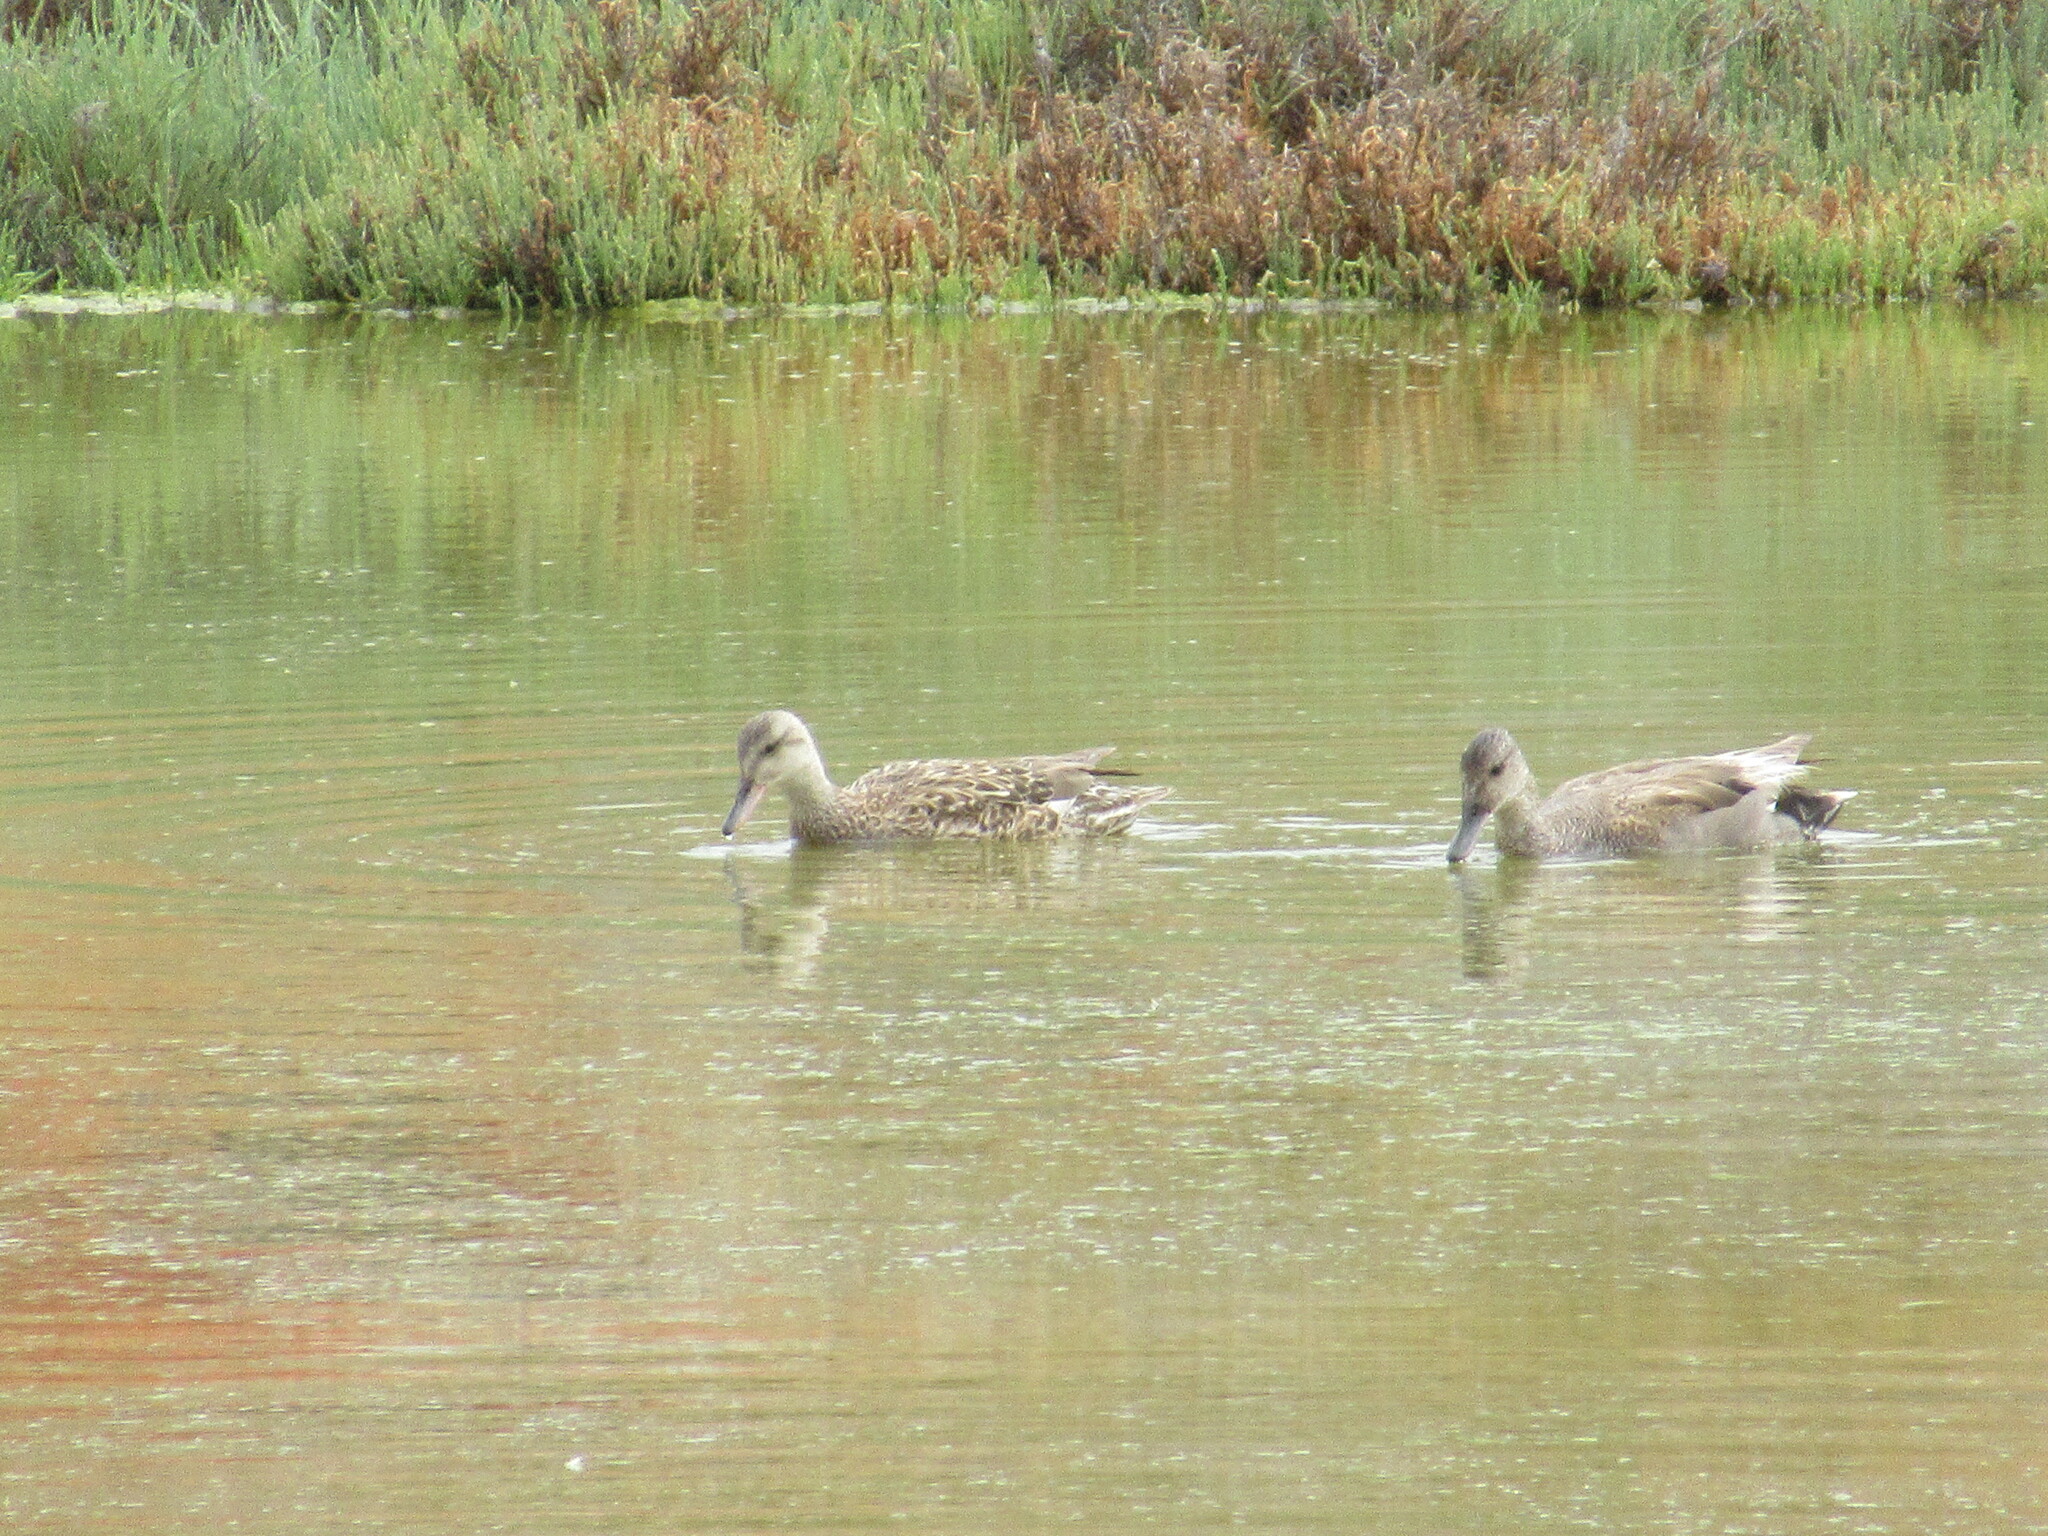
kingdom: Animalia
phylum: Chordata
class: Aves
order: Anseriformes
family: Anatidae
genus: Mareca
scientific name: Mareca strepera
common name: Gadwall
